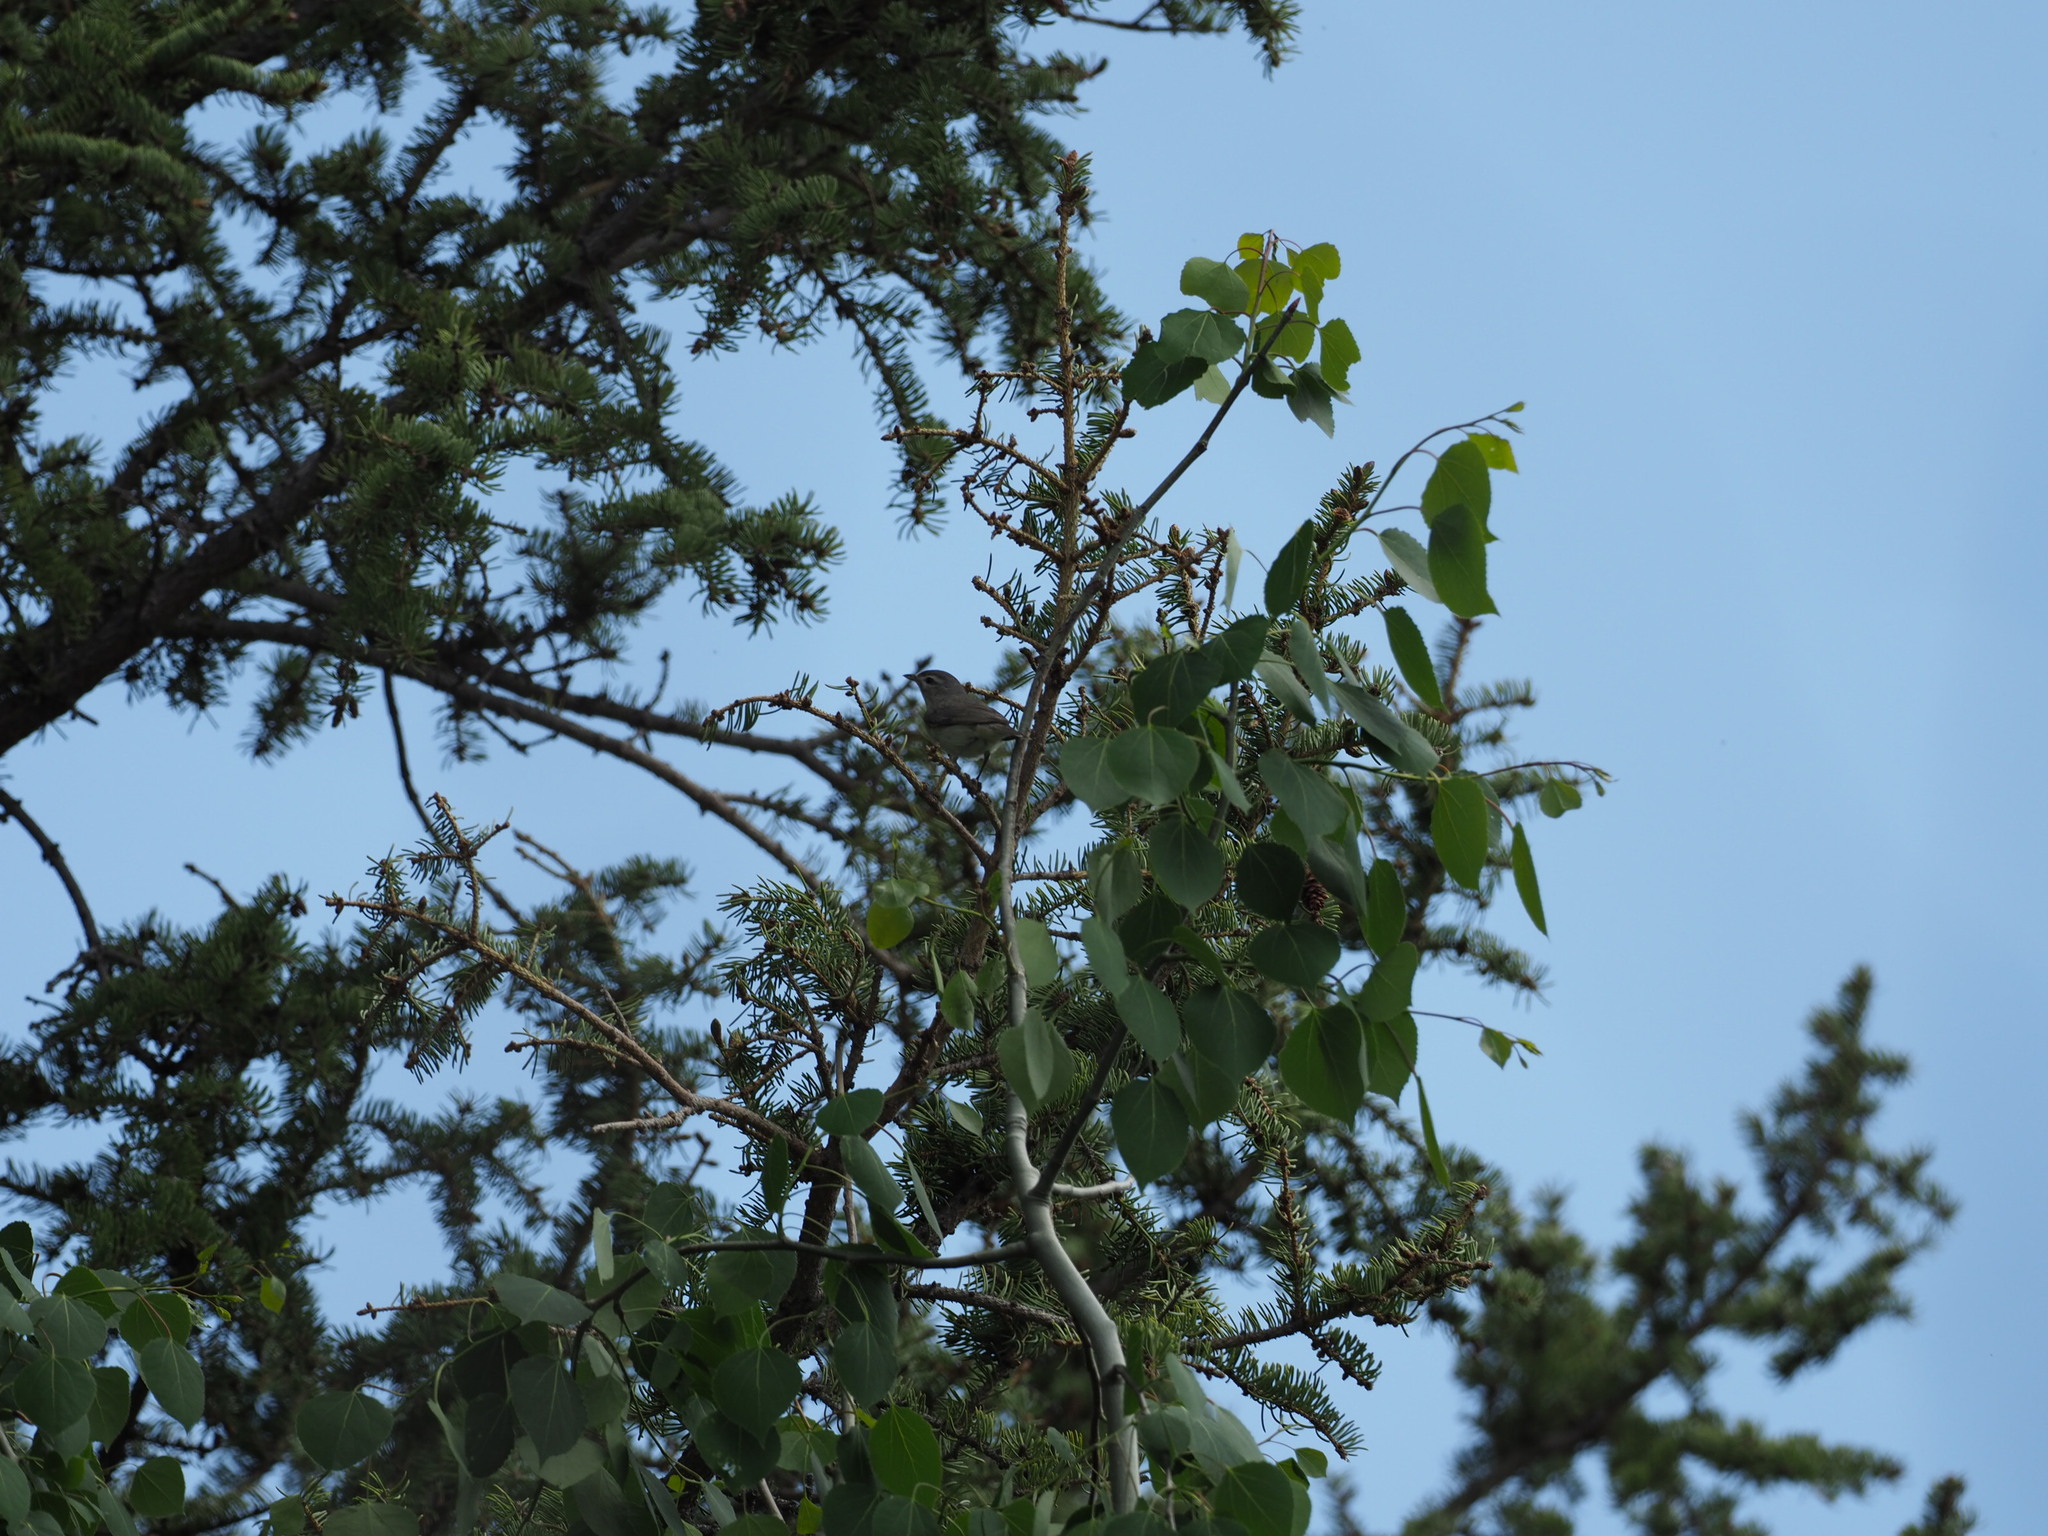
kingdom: Animalia
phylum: Chordata
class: Aves
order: Passeriformes
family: Vireonidae
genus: Vireo
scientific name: Vireo gilvus
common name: Warbling vireo
